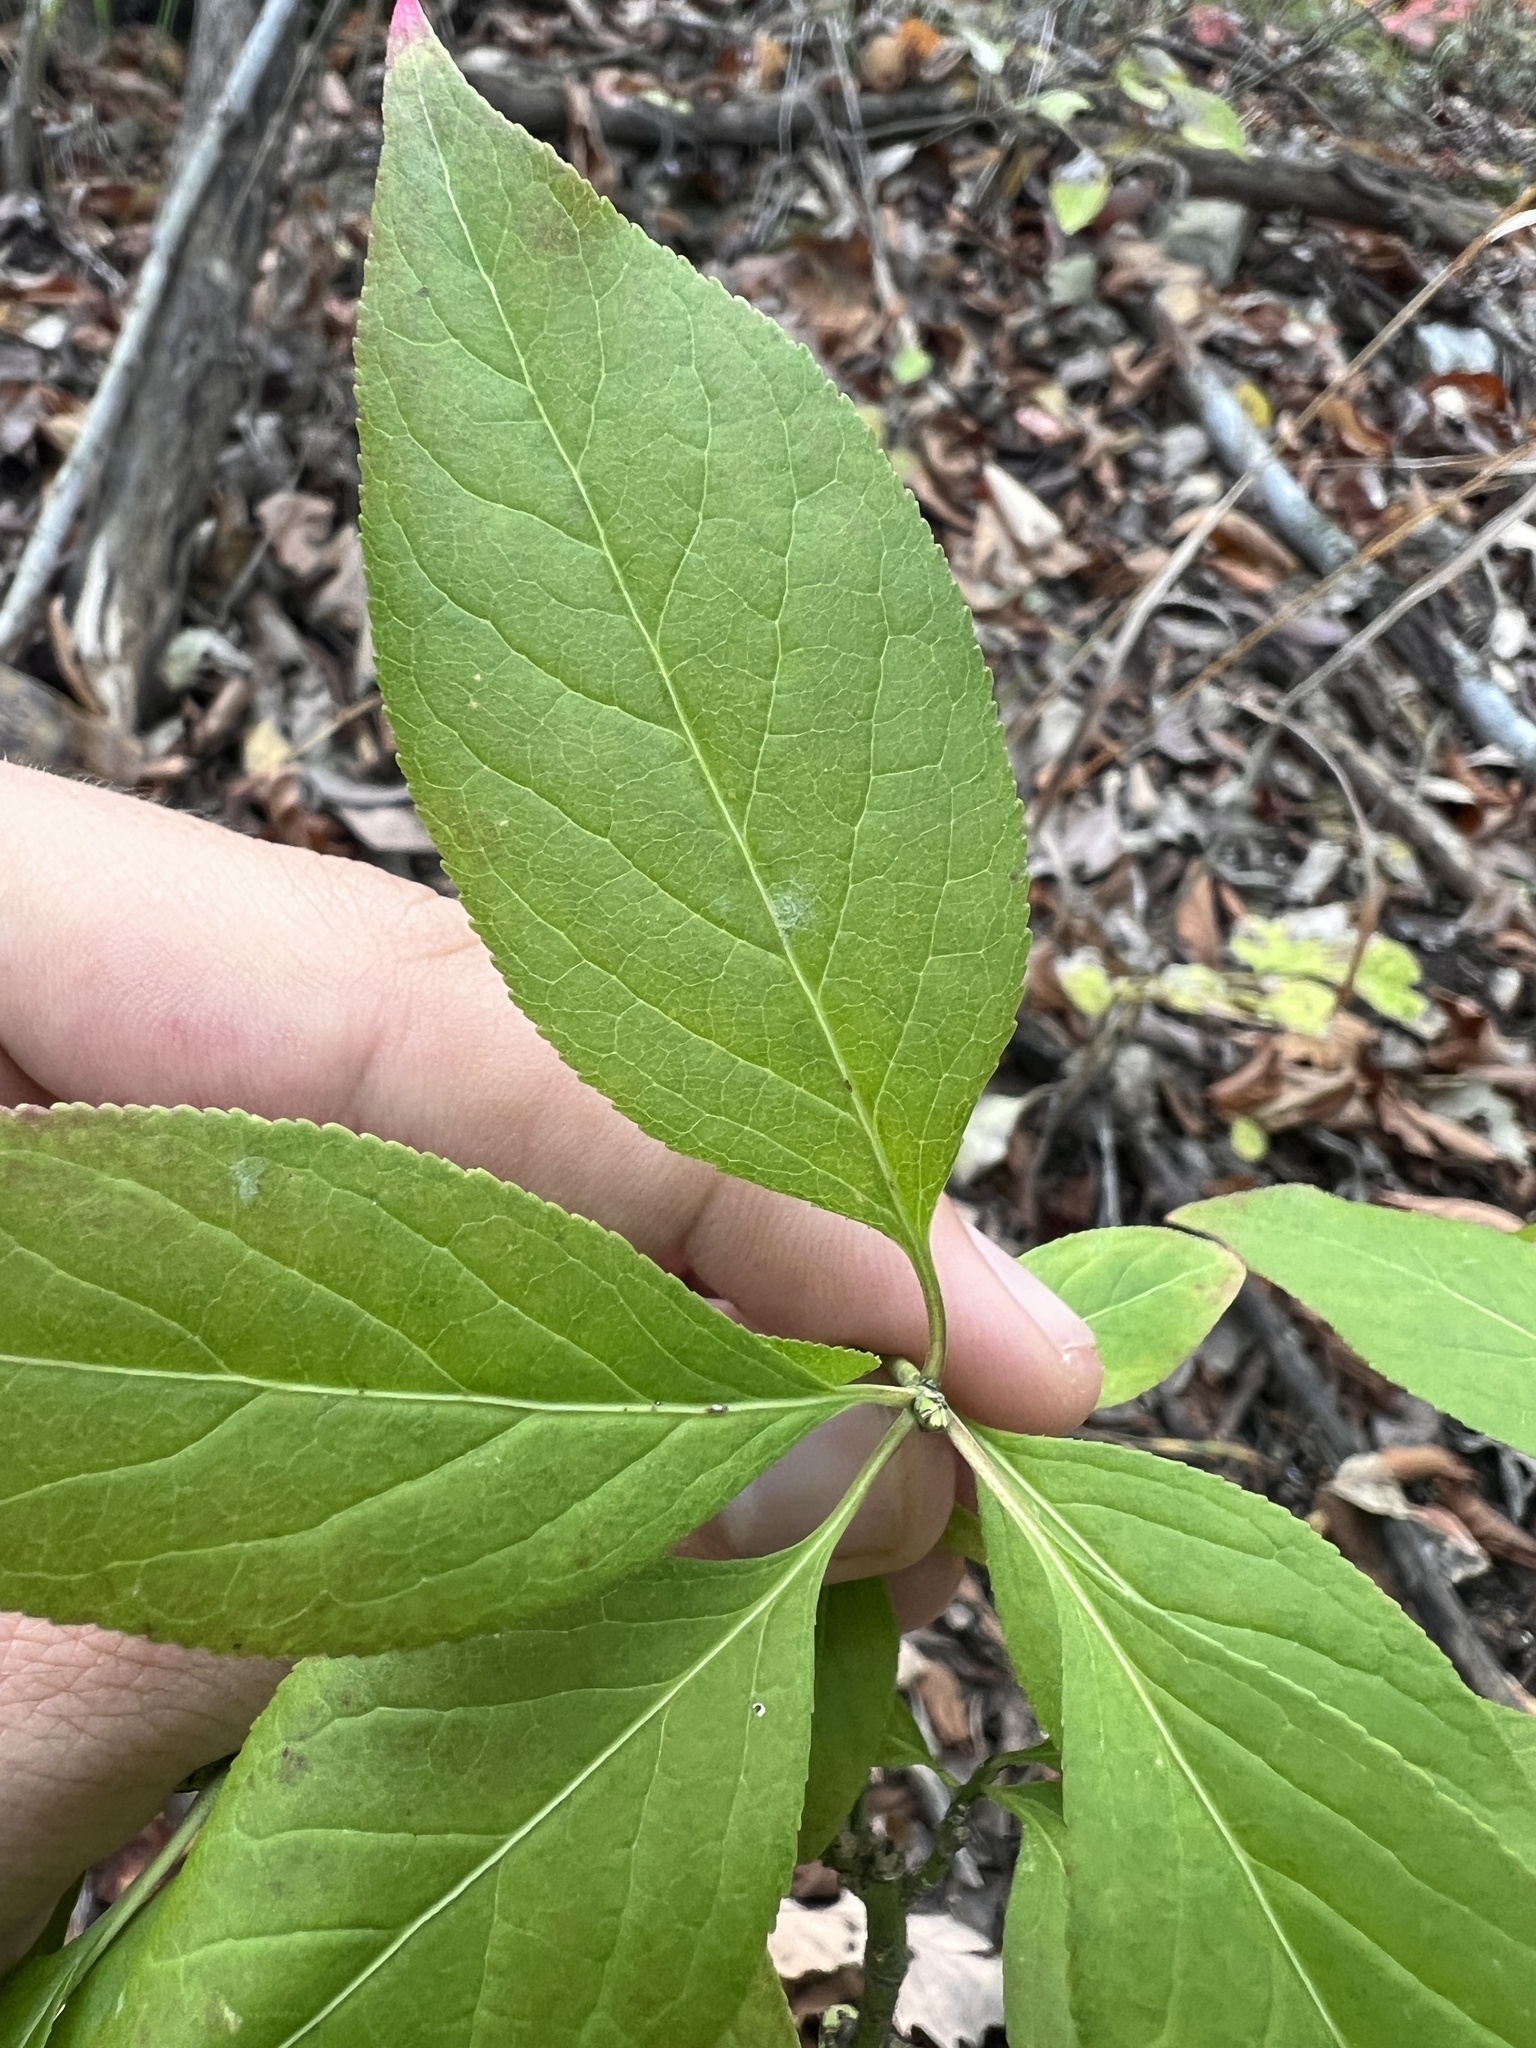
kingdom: Plantae
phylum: Tracheophyta
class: Magnoliopsida
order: Celastrales
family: Celastraceae
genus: Euonymus
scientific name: Euonymus atropurpureus
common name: Eastern wahoo
